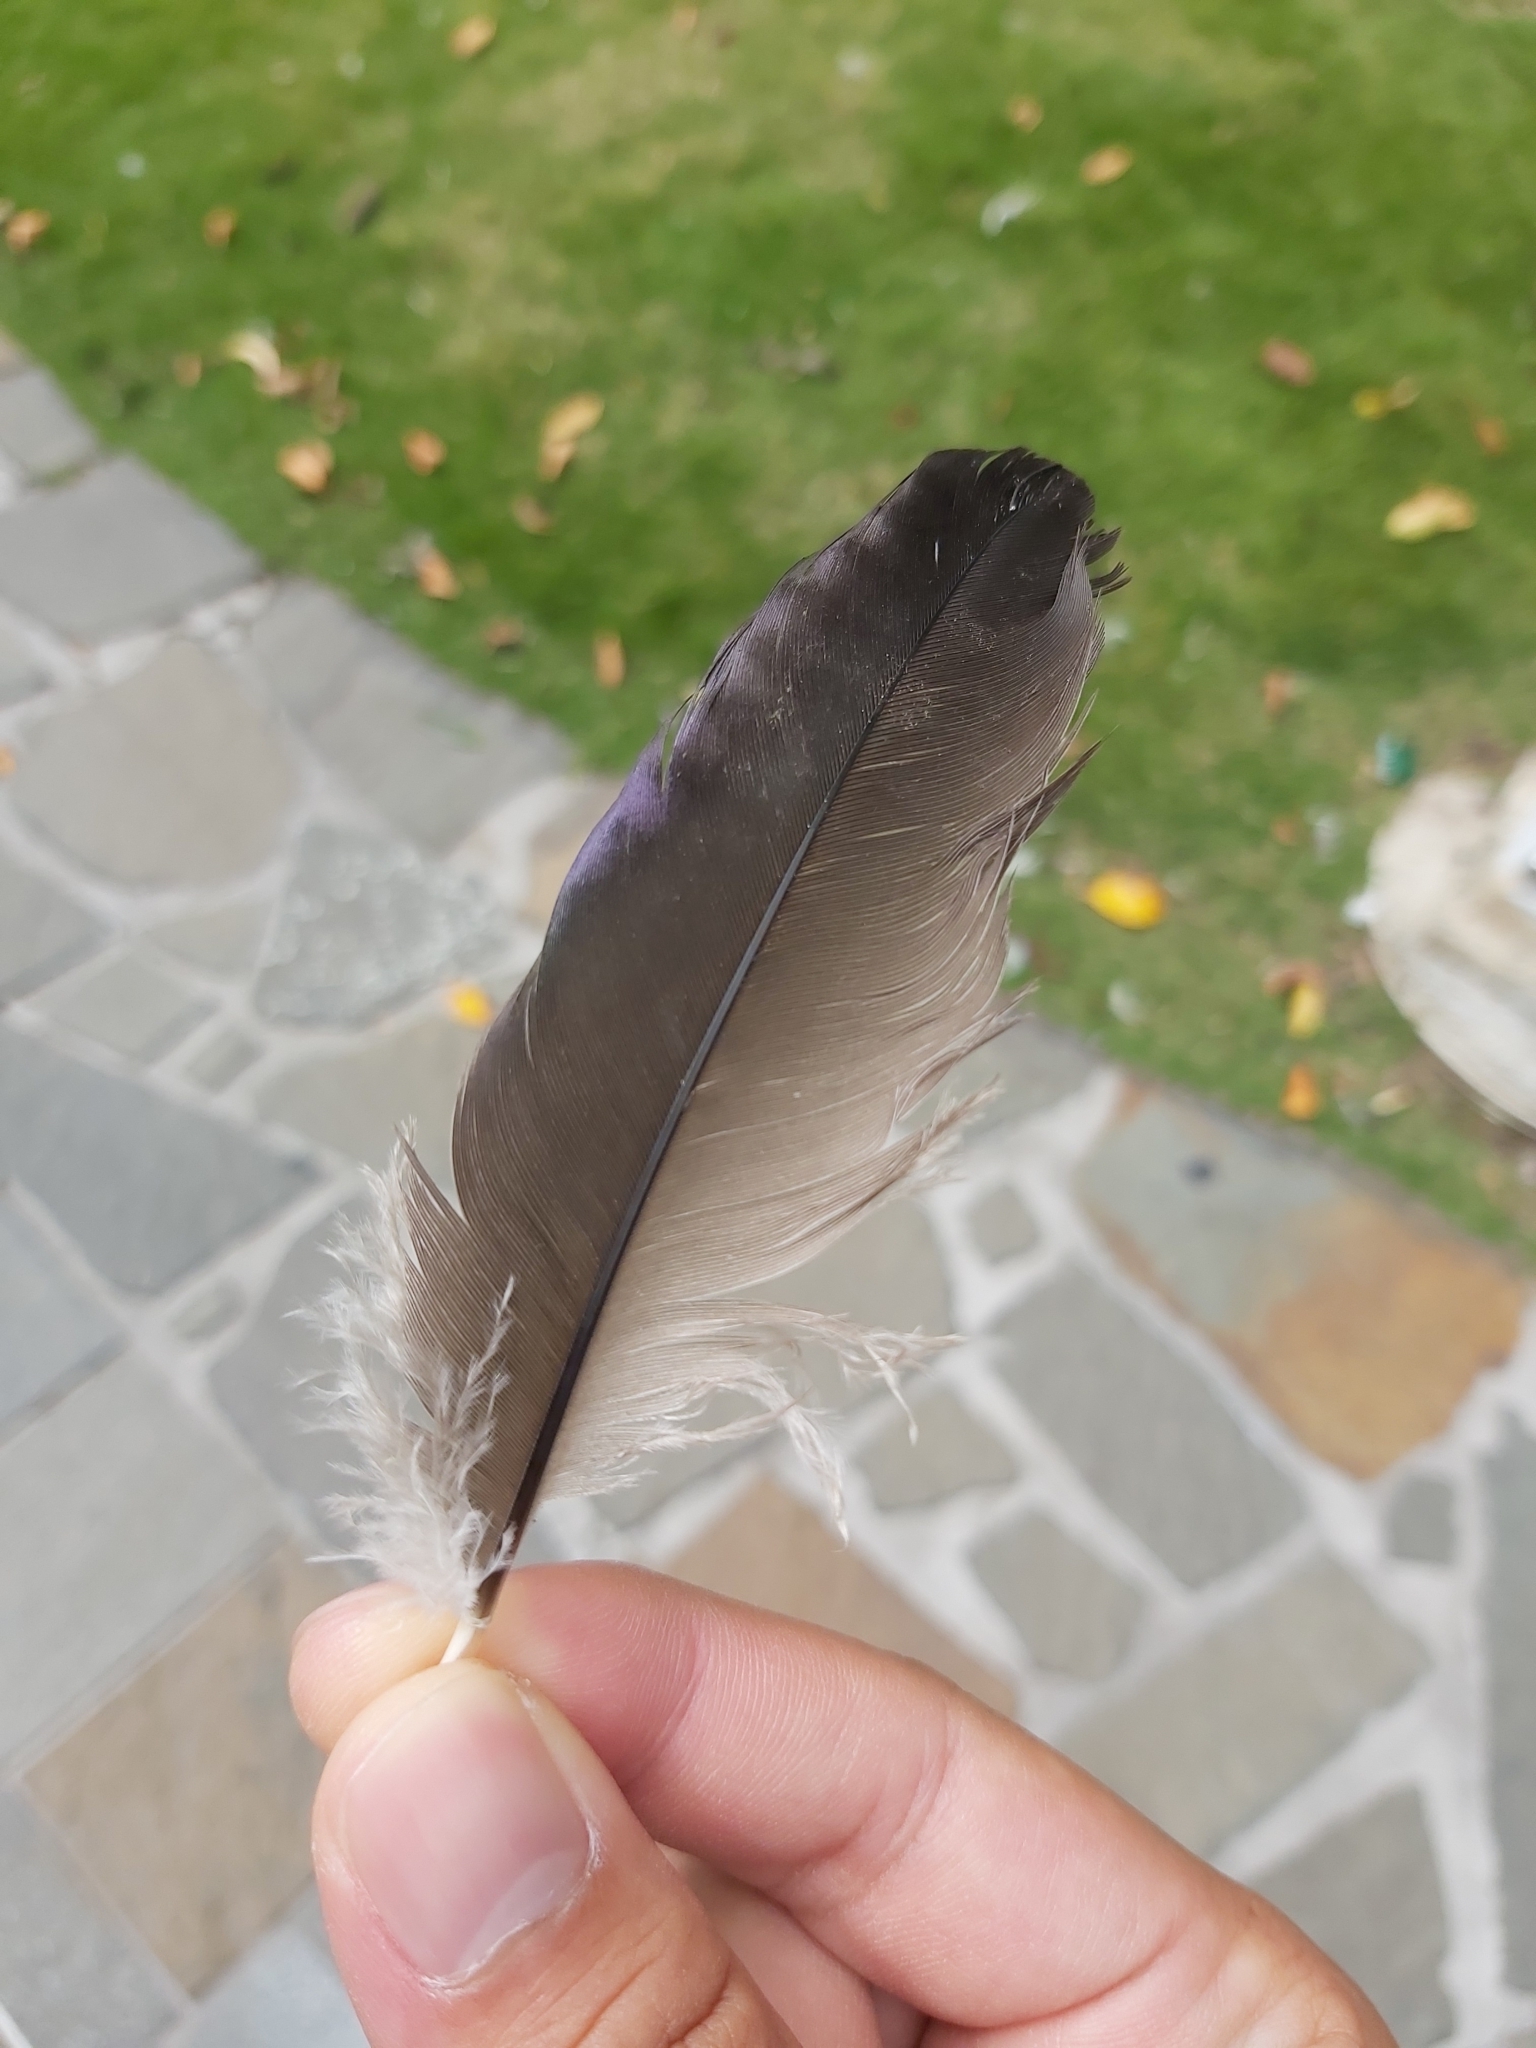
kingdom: Animalia
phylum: Chordata
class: Aves
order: Pelecaniformes
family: Threskiornithidae
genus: Threskiornis
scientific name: Threskiornis spinicollis
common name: Straw-necked ibis
